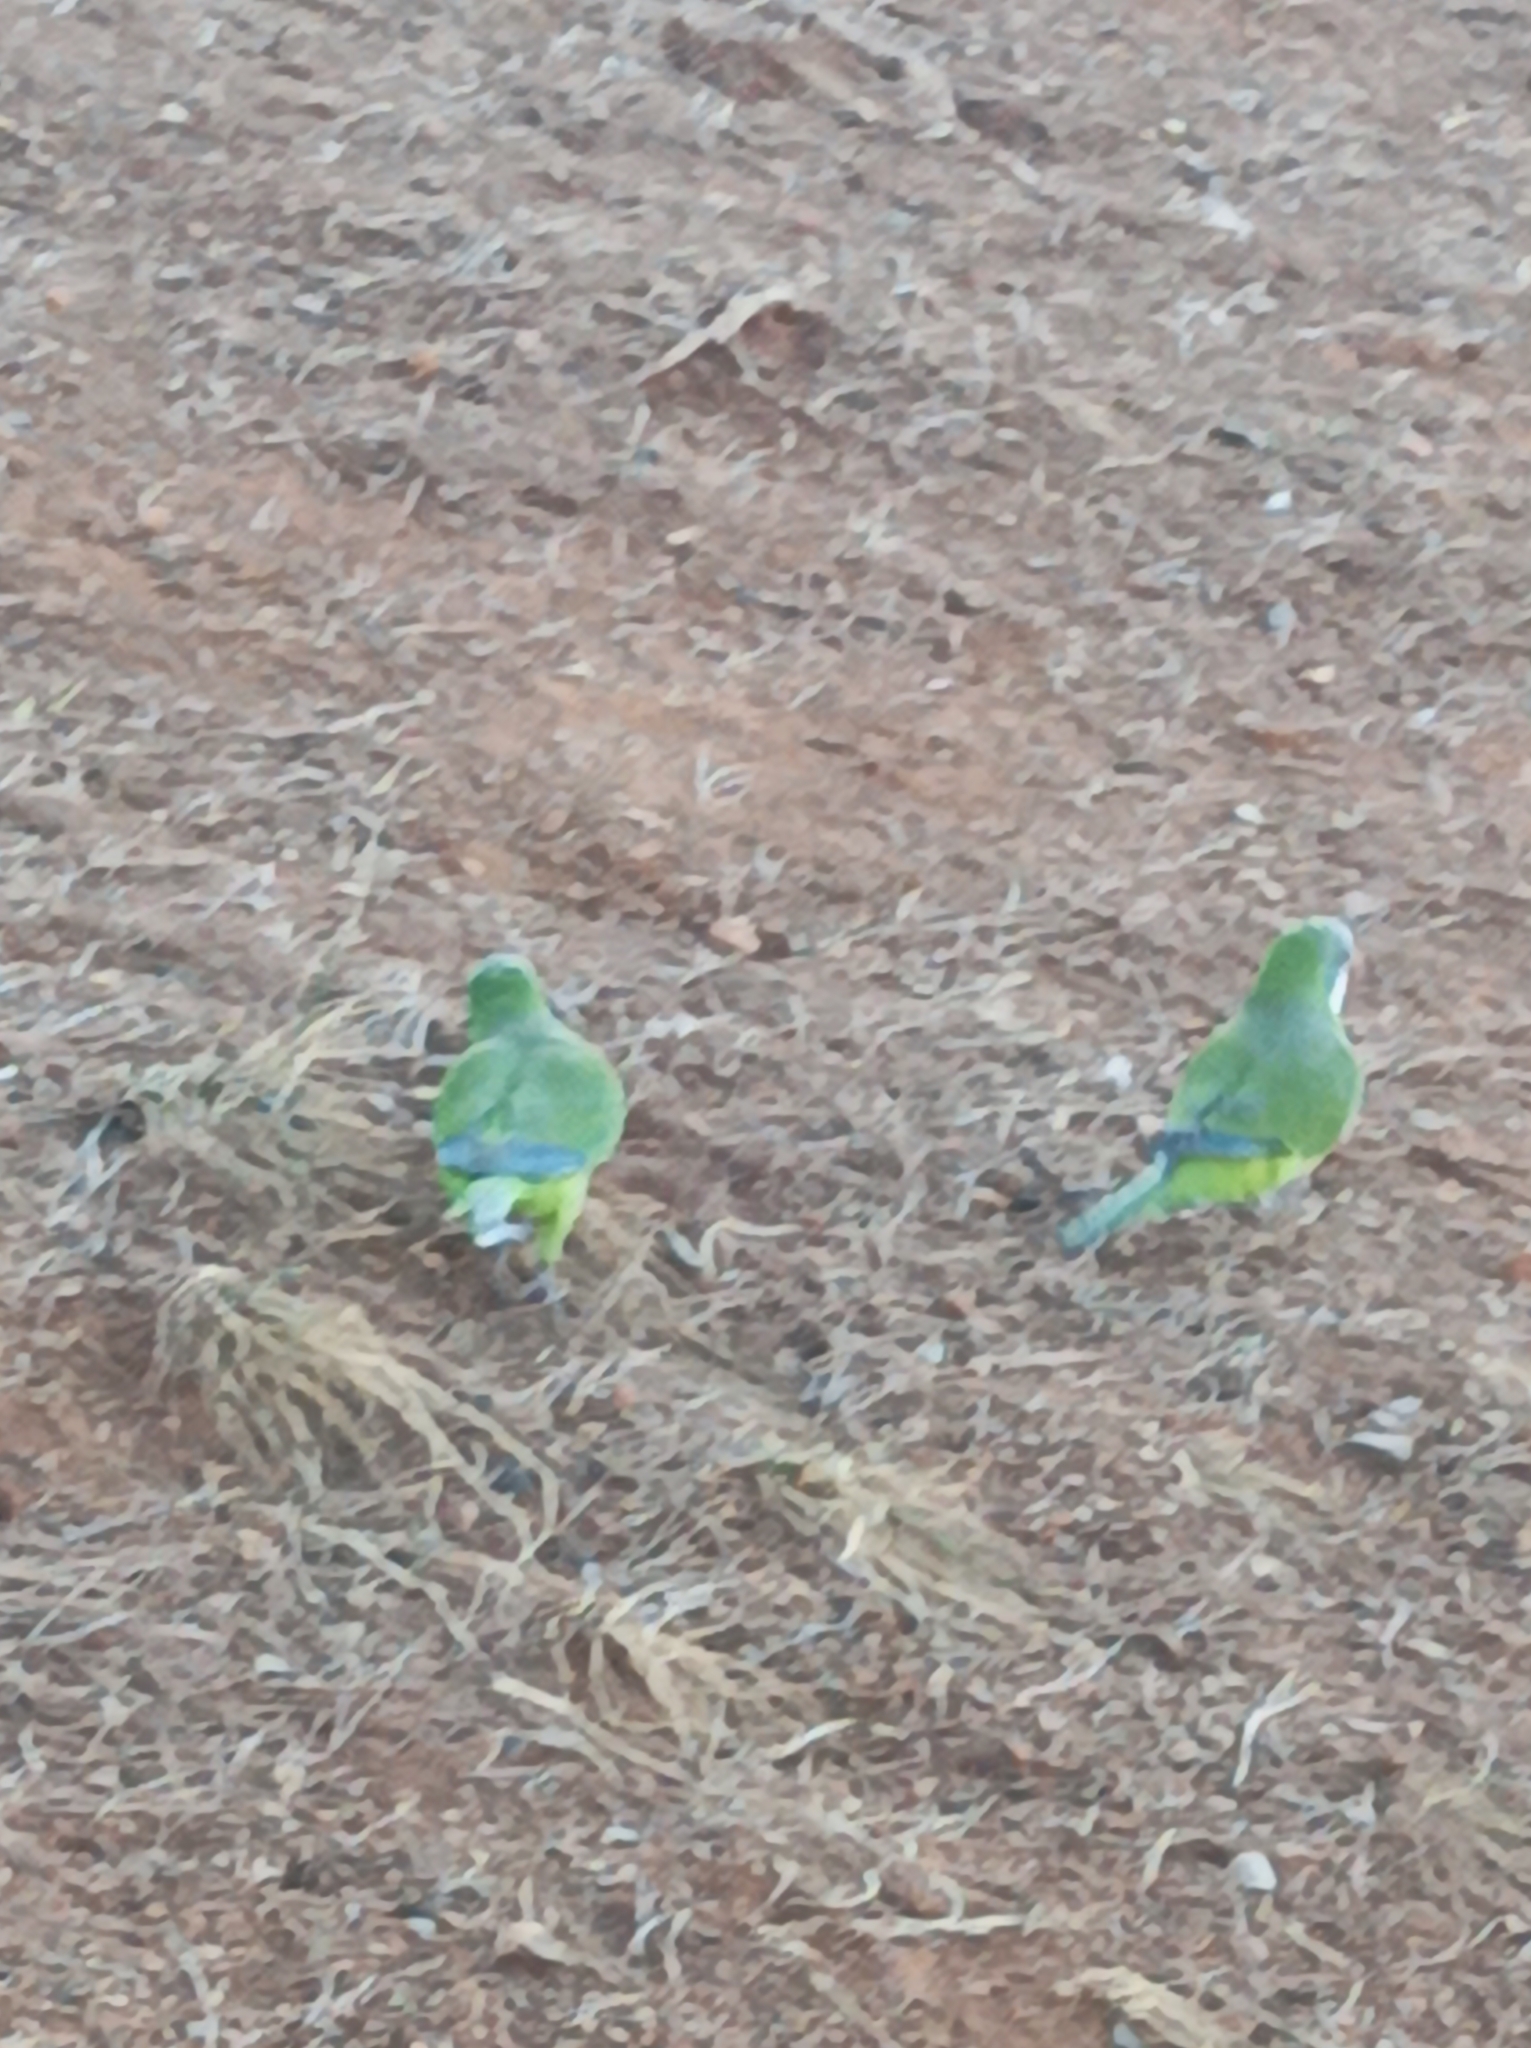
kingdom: Animalia
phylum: Chordata
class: Aves
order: Psittaciformes
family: Psittacidae
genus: Myiopsitta
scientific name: Myiopsitta monachus
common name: Monk parakeet
